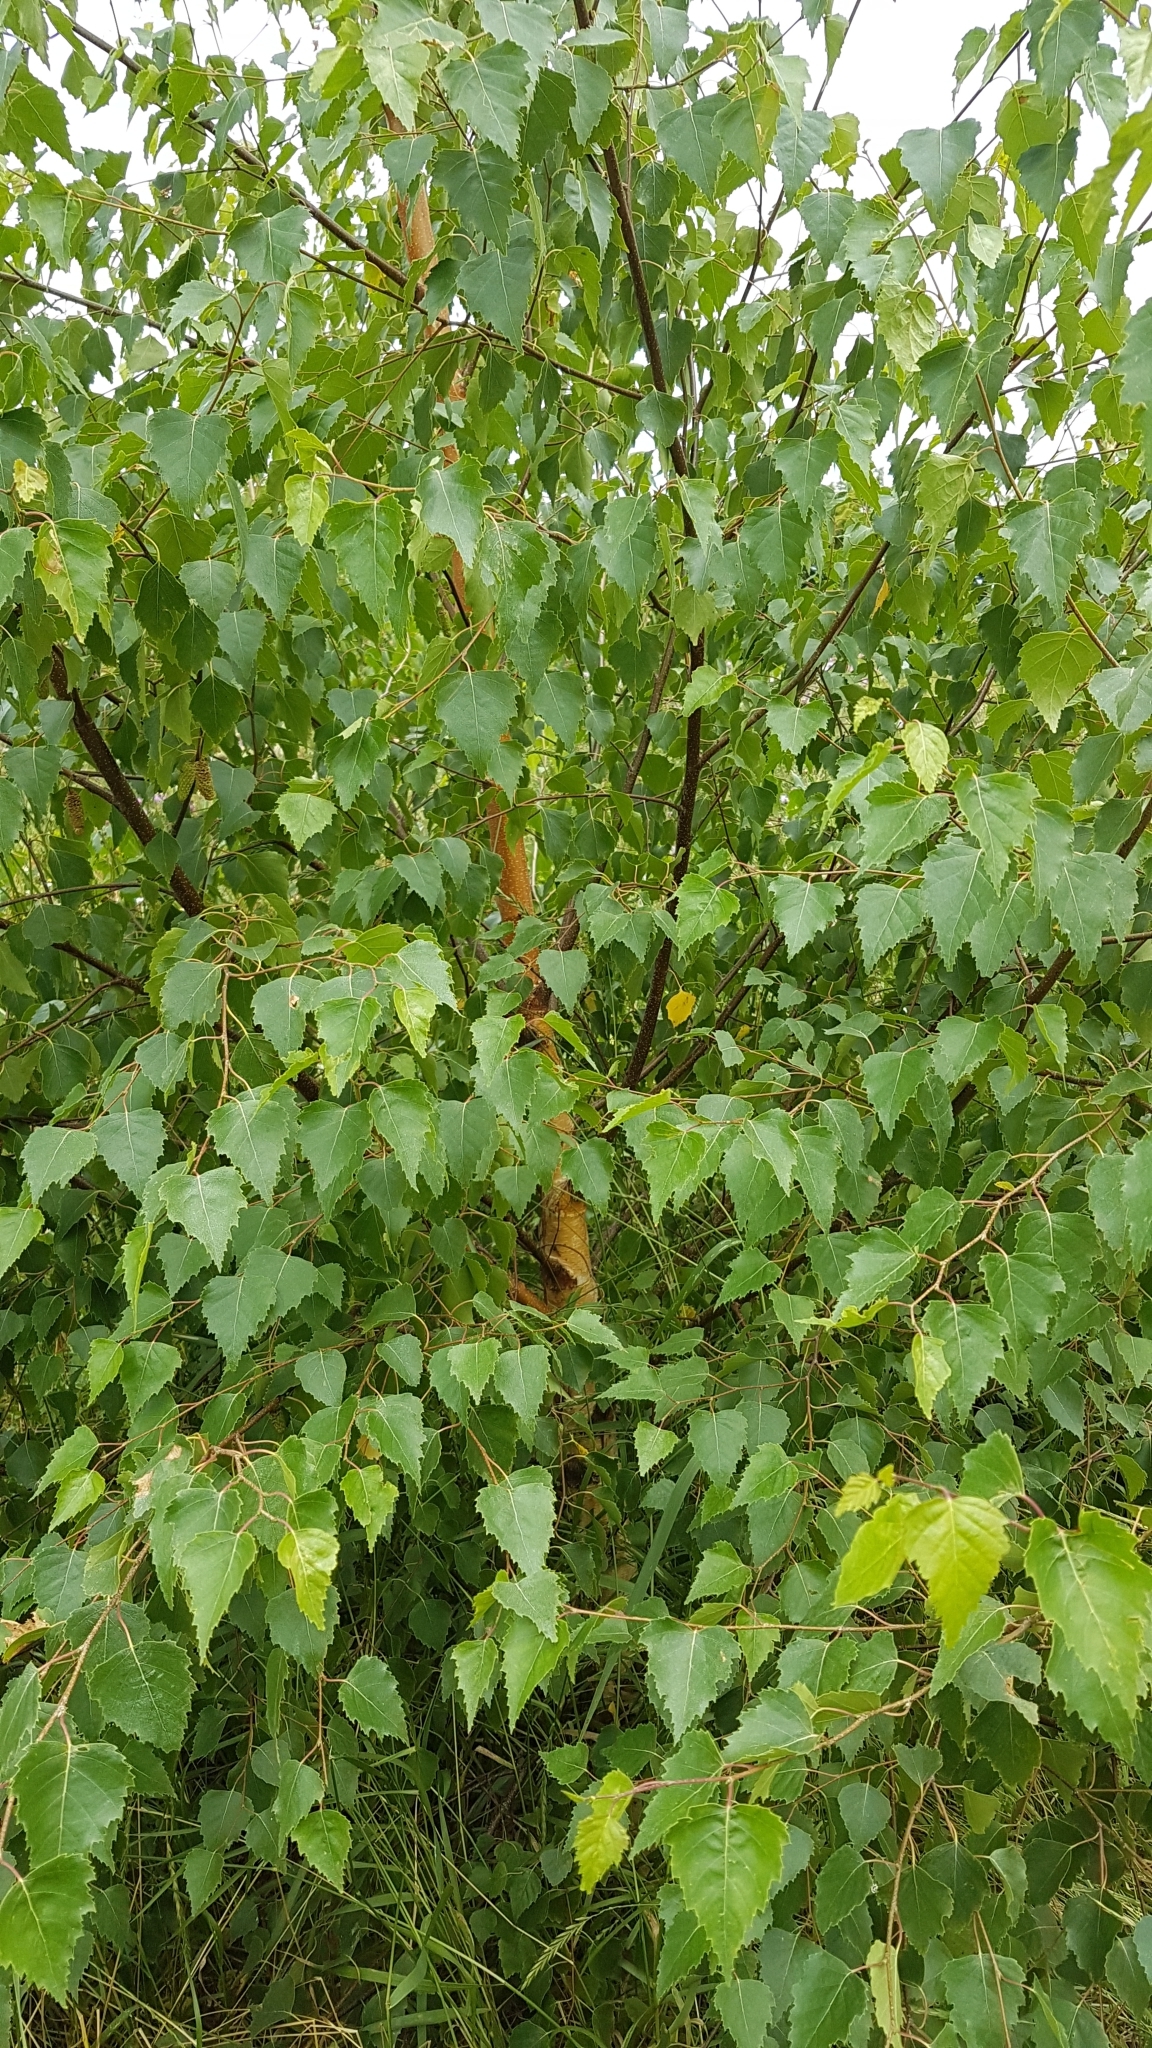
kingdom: Plantae
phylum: Tracheophyta
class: Magnoliopsida
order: Fagales
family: Betulaceae
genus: Betula
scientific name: Betula pendula
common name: Silver birch
